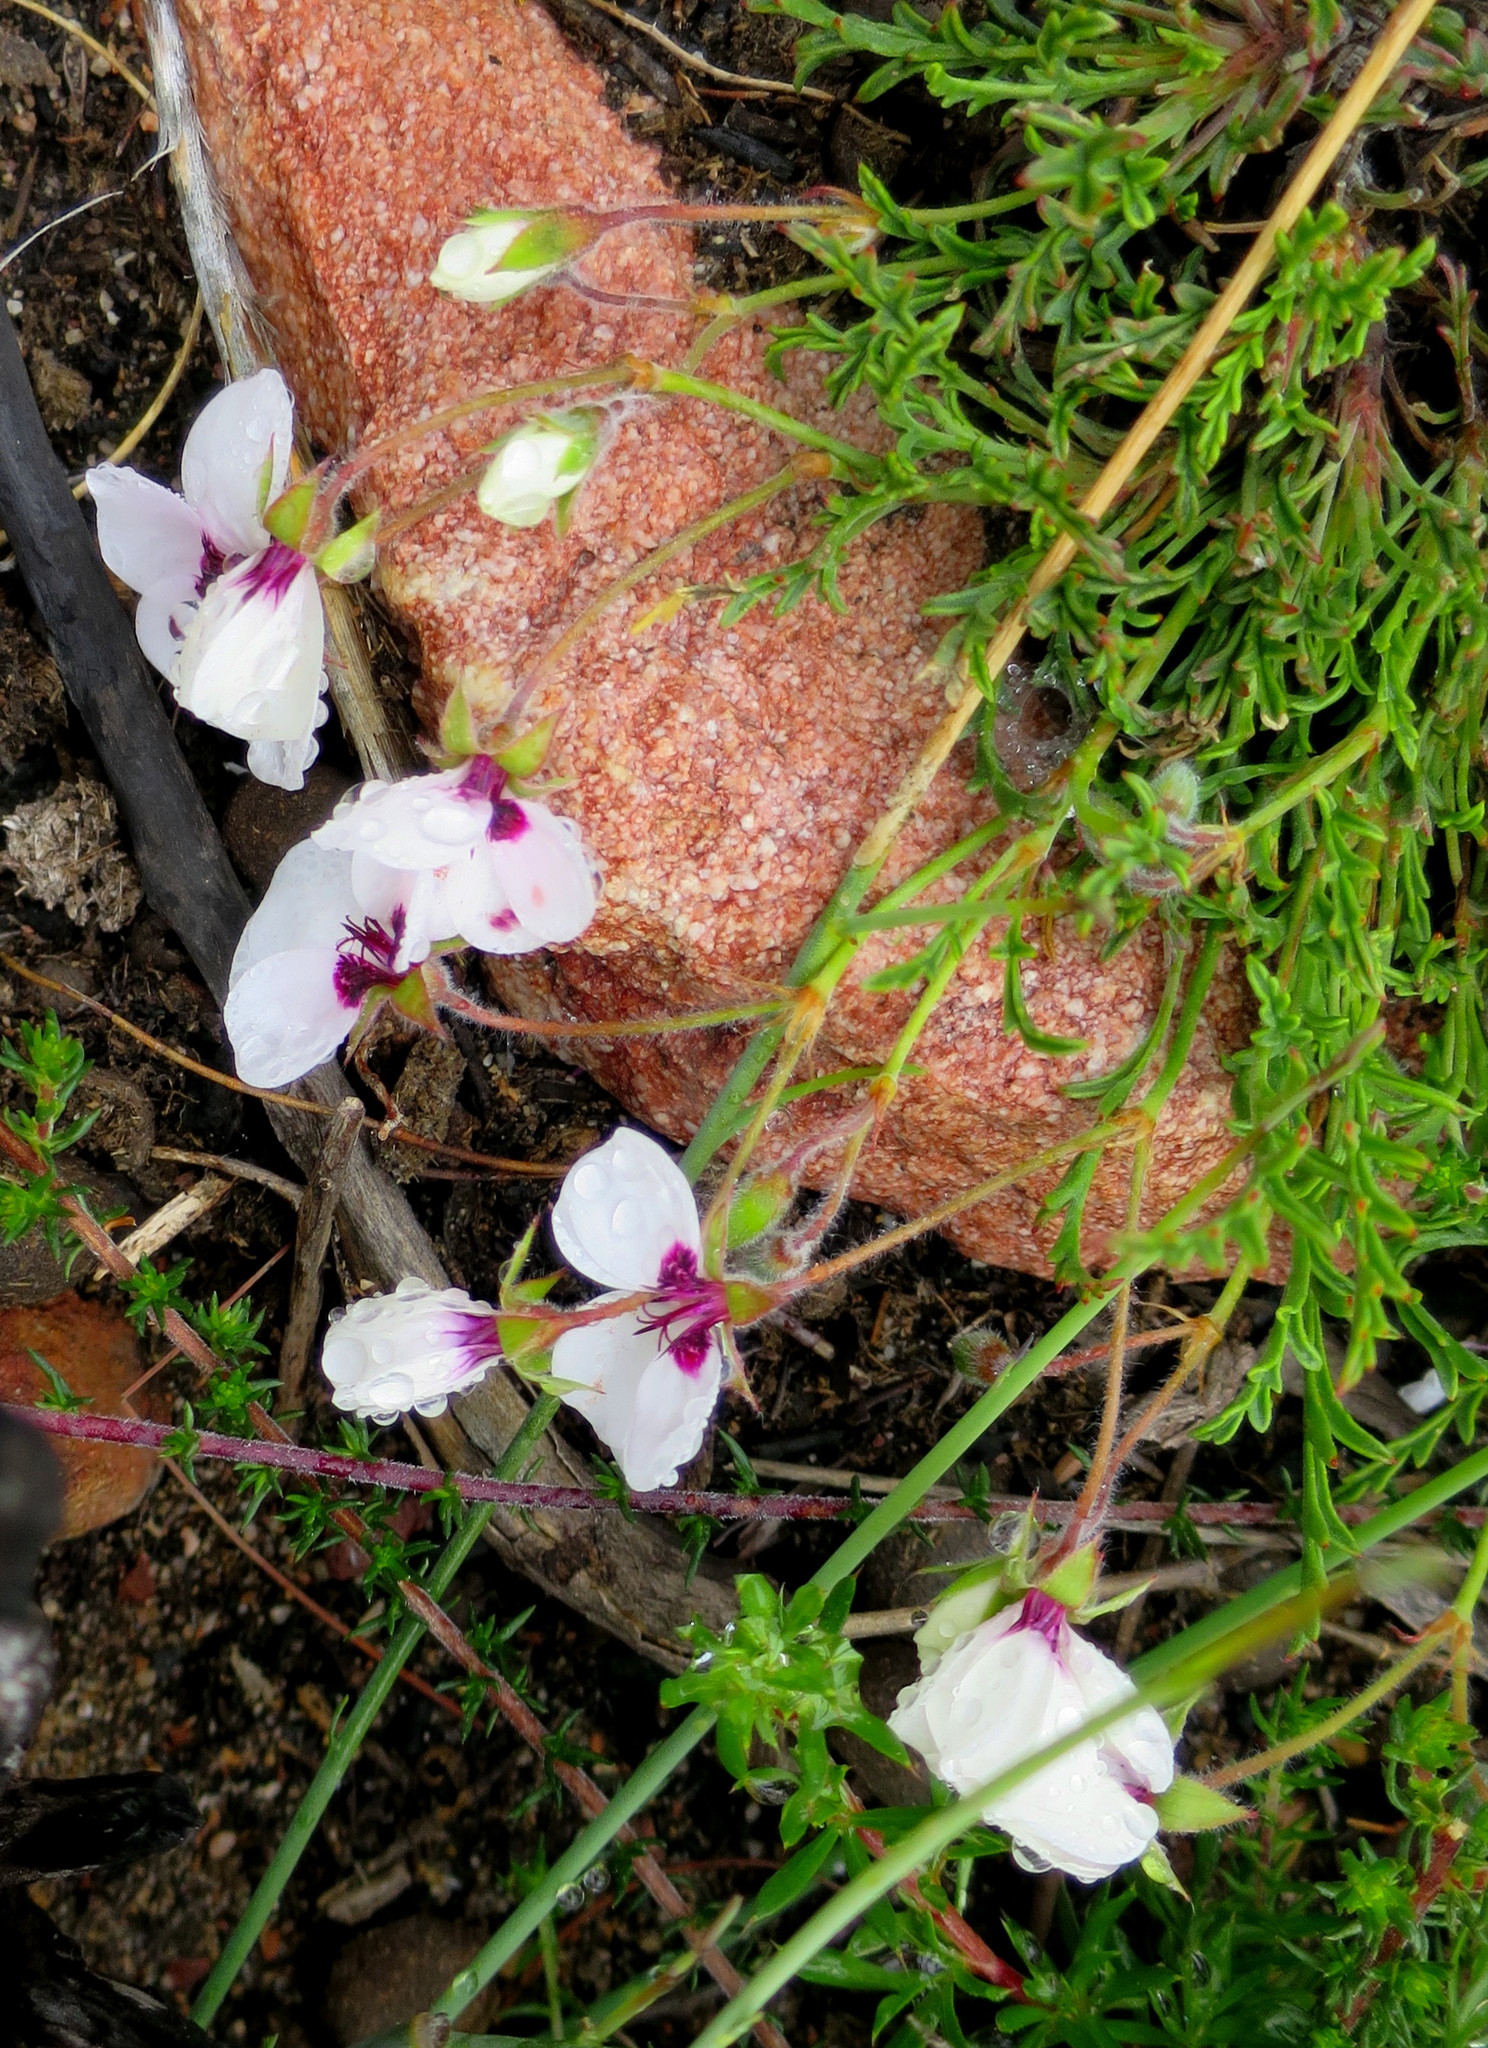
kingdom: Plantae
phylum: Tracheophyta
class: Magnoliopsida
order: Geraniales
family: Geraniaceae
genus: Pelargonium
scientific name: Pelargonium tricolor
